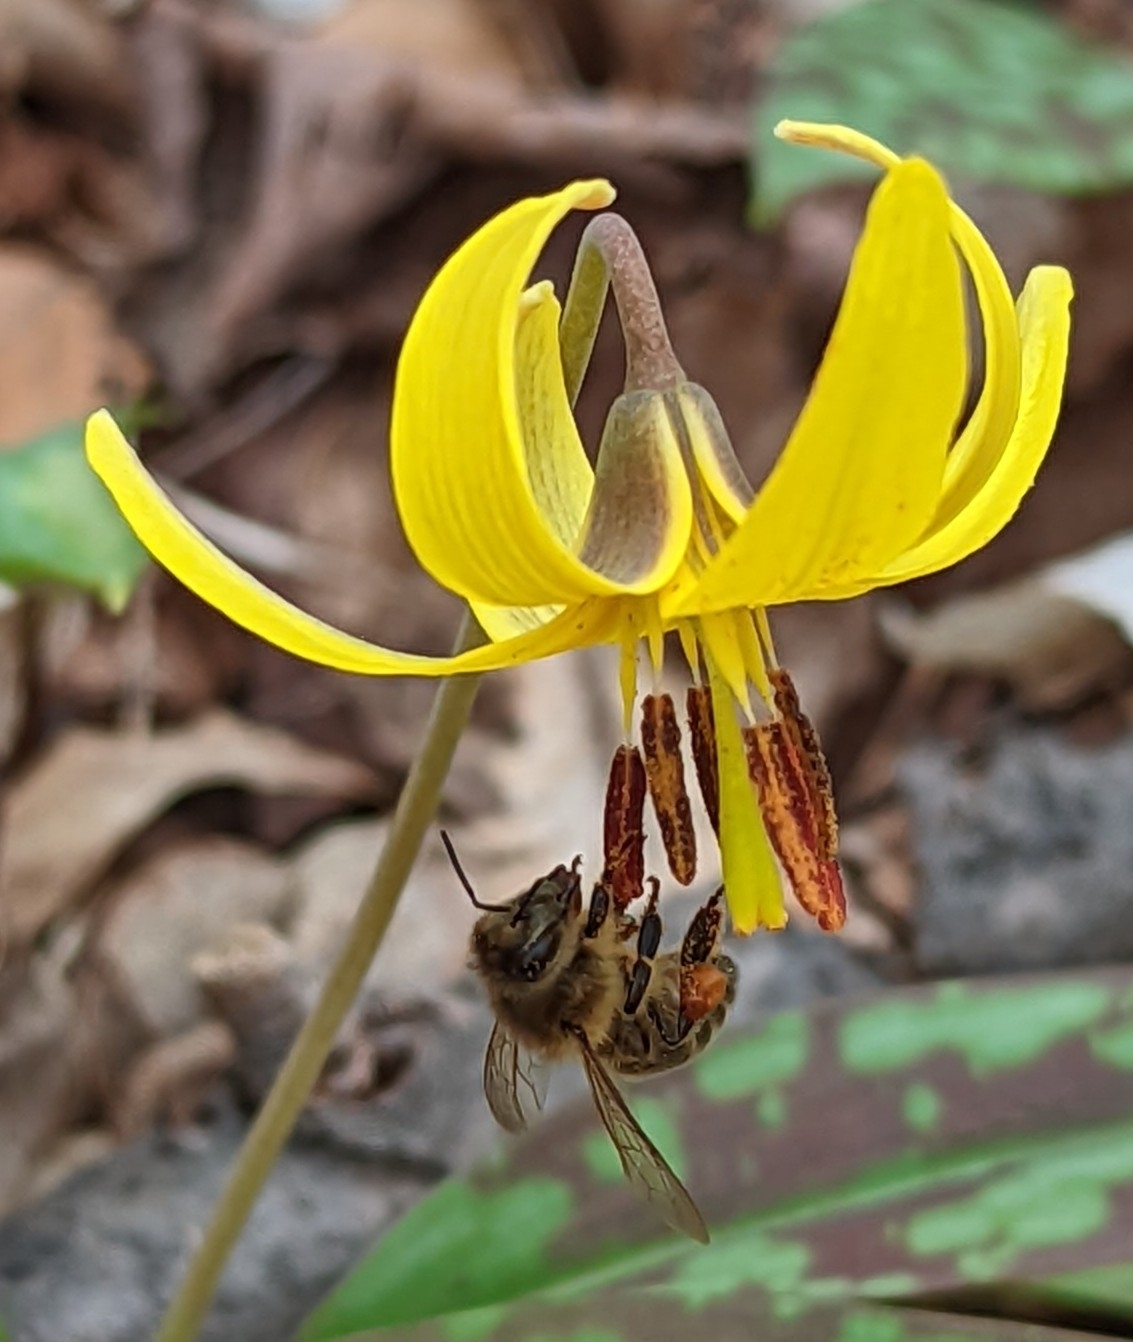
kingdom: Animalia
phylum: Arthropoda
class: Insecta
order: Hymenoptera
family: Apidae
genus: Apis
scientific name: Apis mellifera
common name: Honey bee
